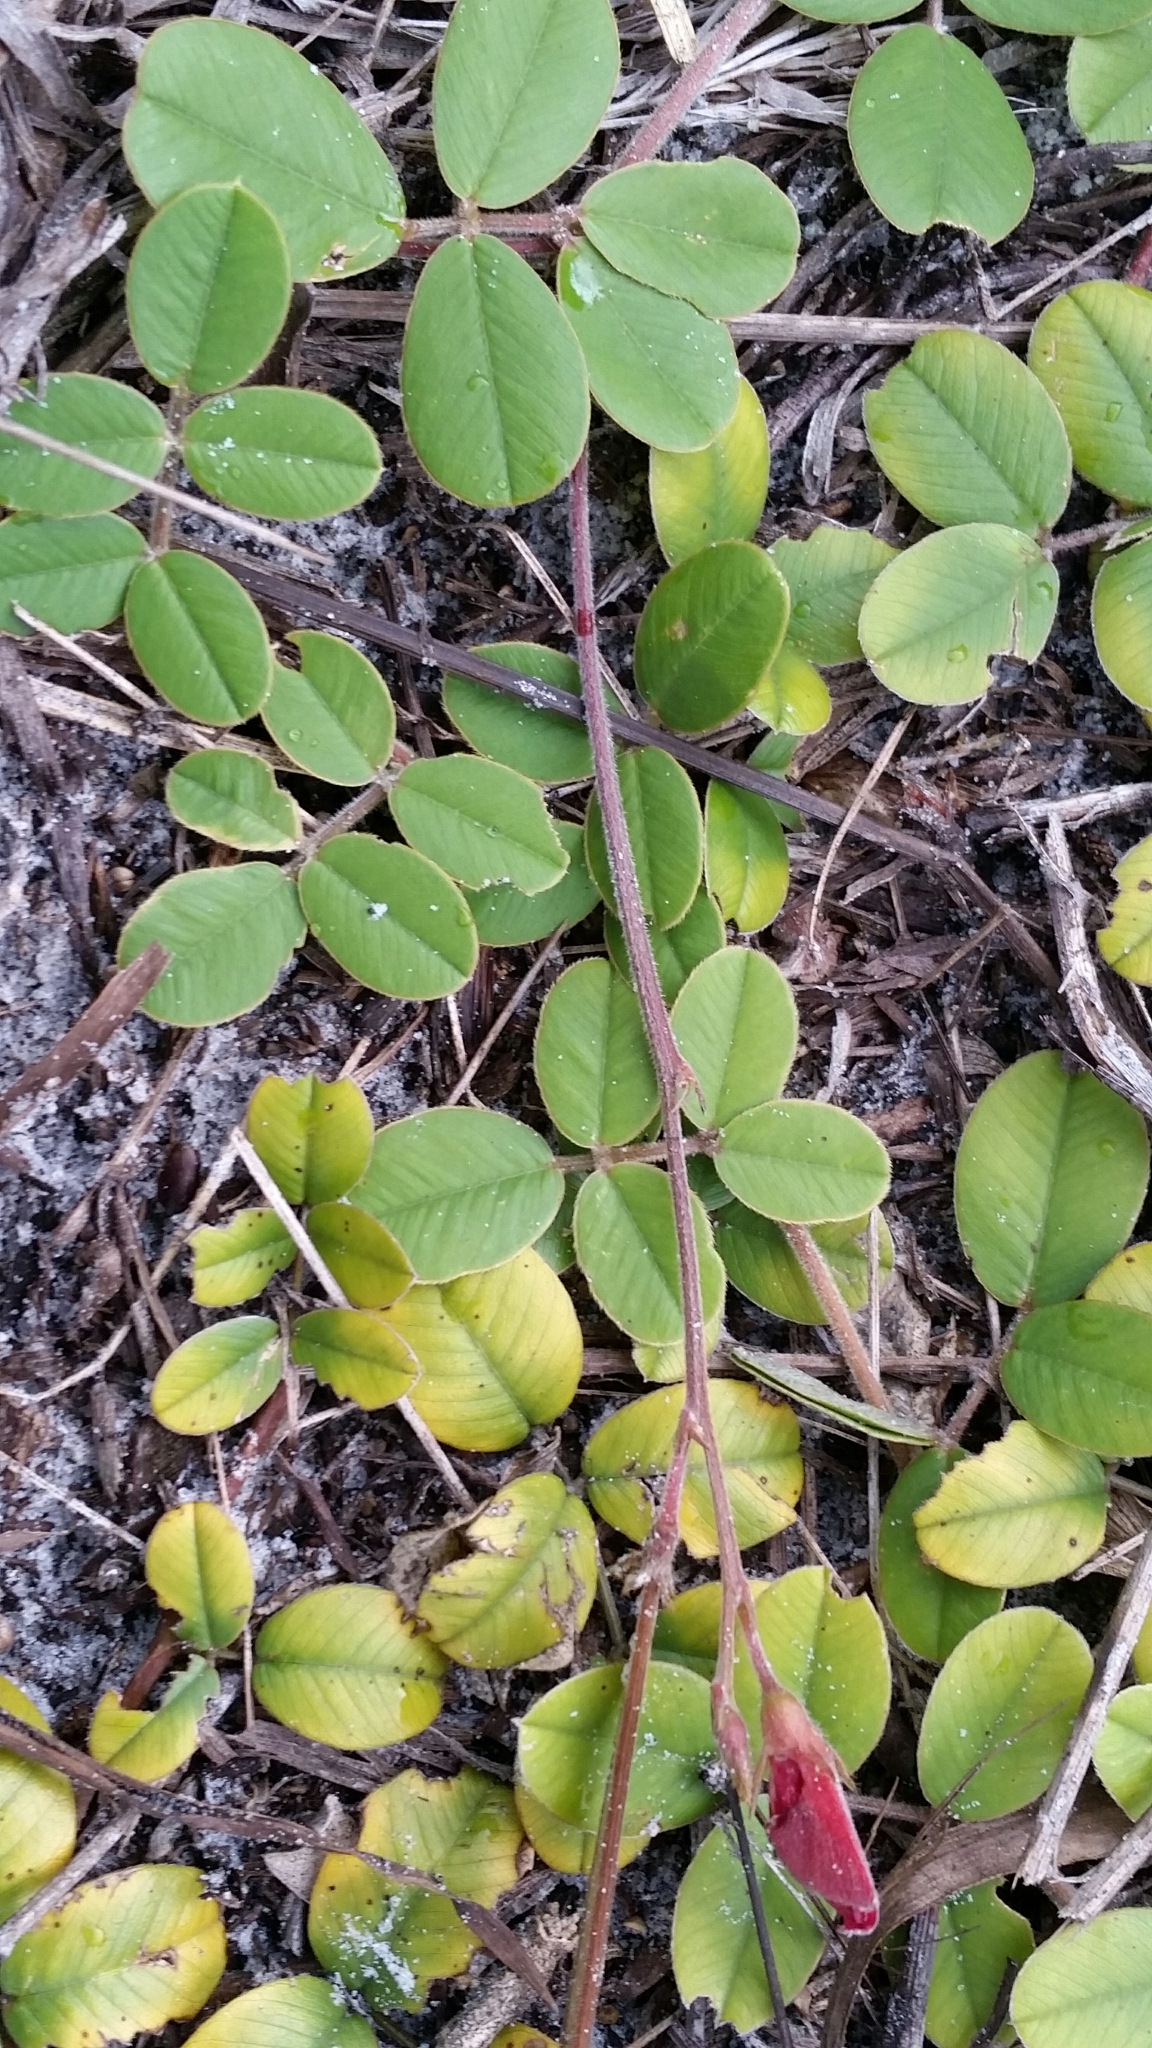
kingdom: Plantae
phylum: Tracheophyta
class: Magnoliopsida
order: Fabales
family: Fabaceae
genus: Tephrosia
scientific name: Tephrosia chrysophylla
